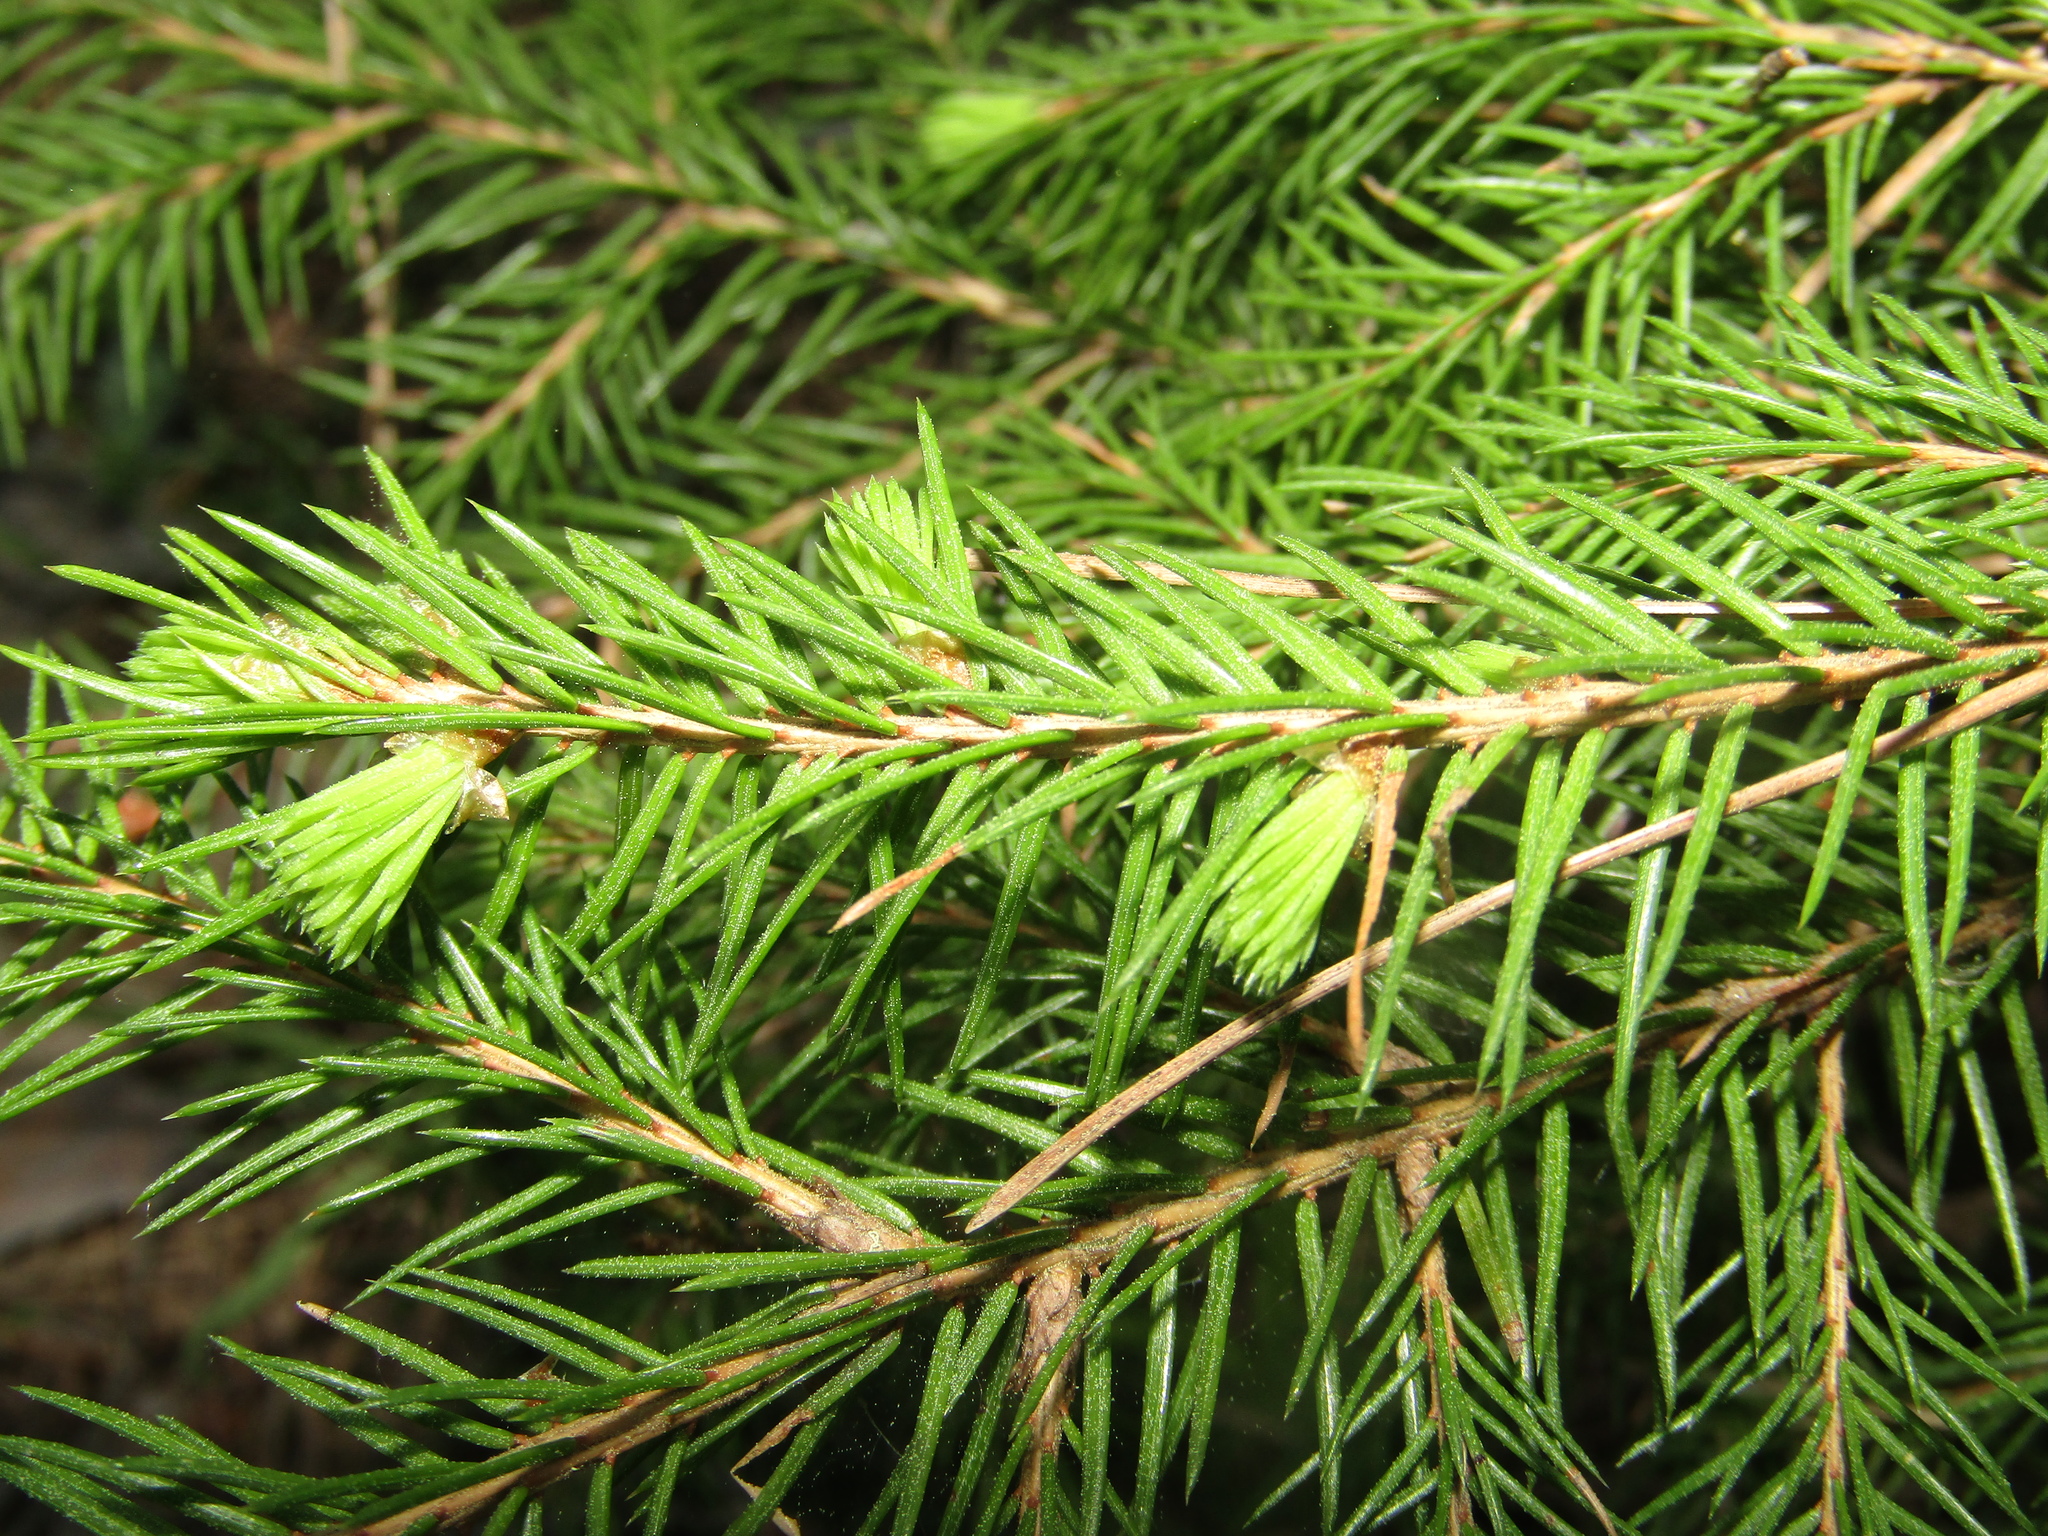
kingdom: Plantae
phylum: Tracheophyta
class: Pinopsida
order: Pinales
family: Pinaceae
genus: Picea
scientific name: Picea abies
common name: Norway spruce
